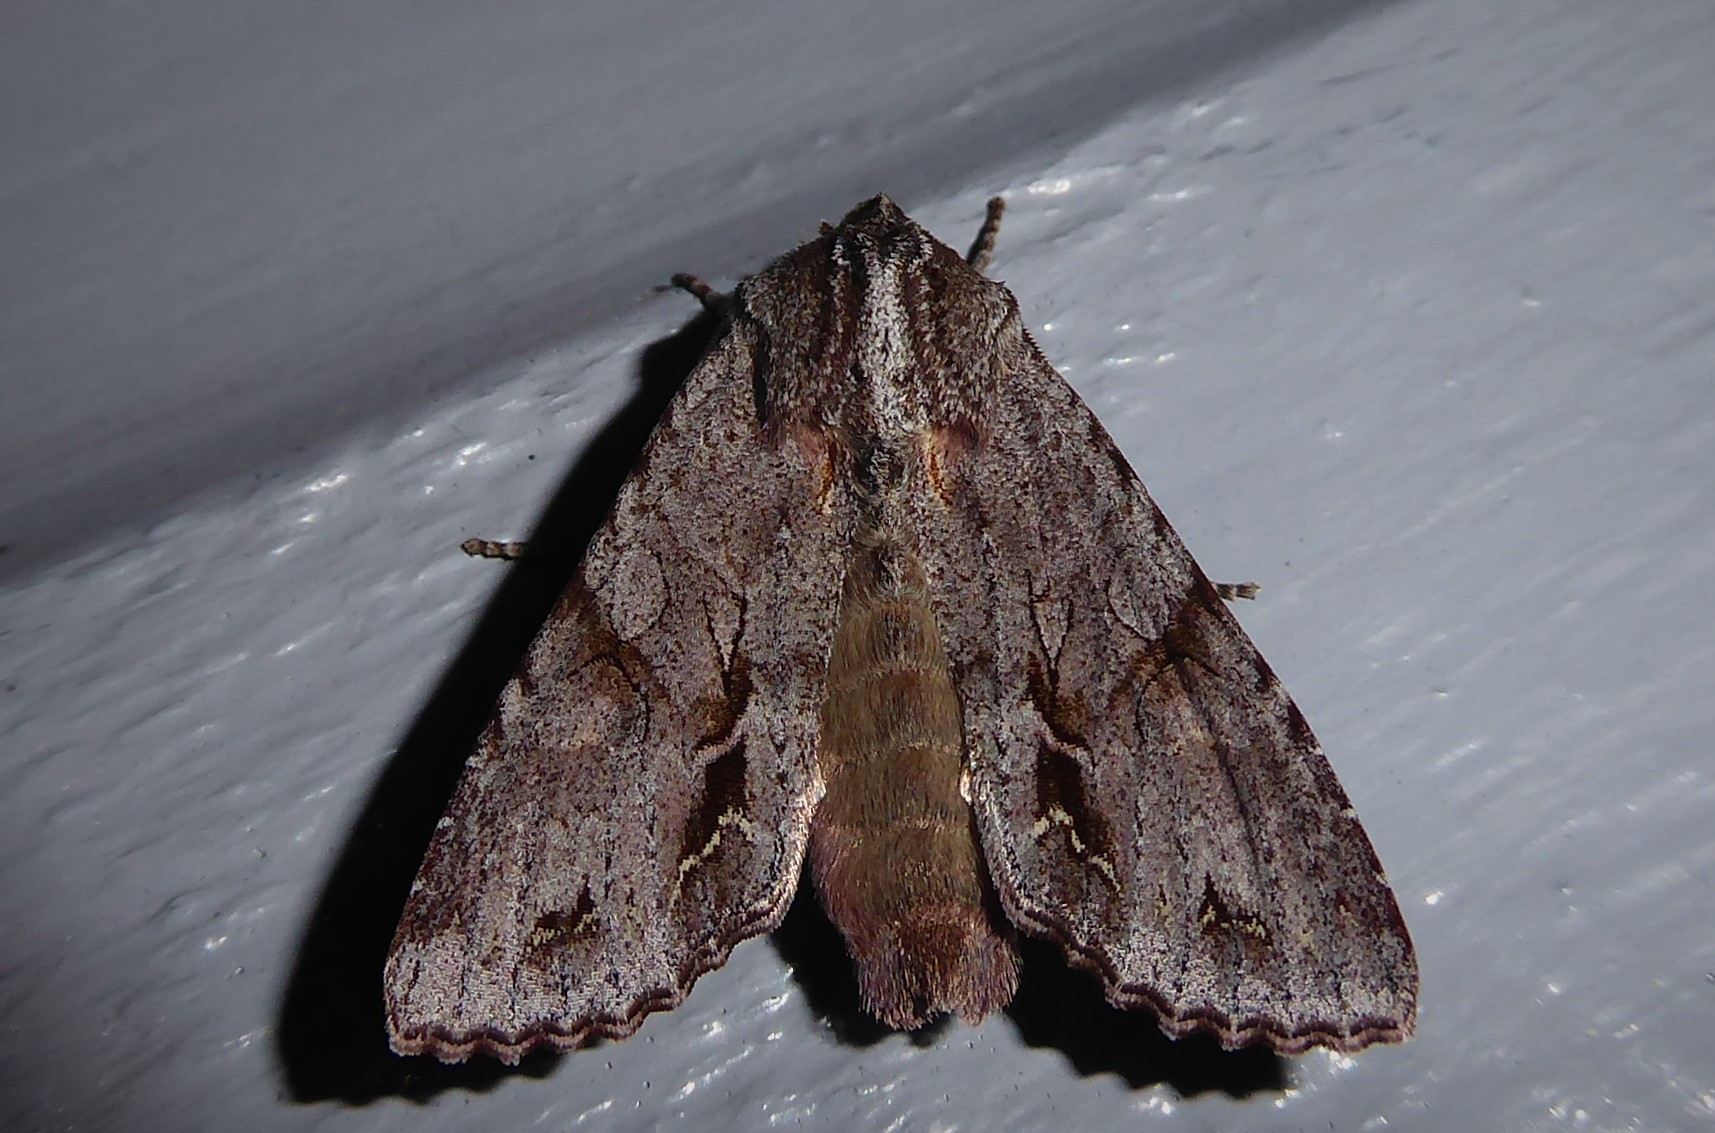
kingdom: Animalia
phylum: Arthropoda
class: Insecta
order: Lepidoptera
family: Noctuidae
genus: Ichneutica
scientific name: Ichneutica
